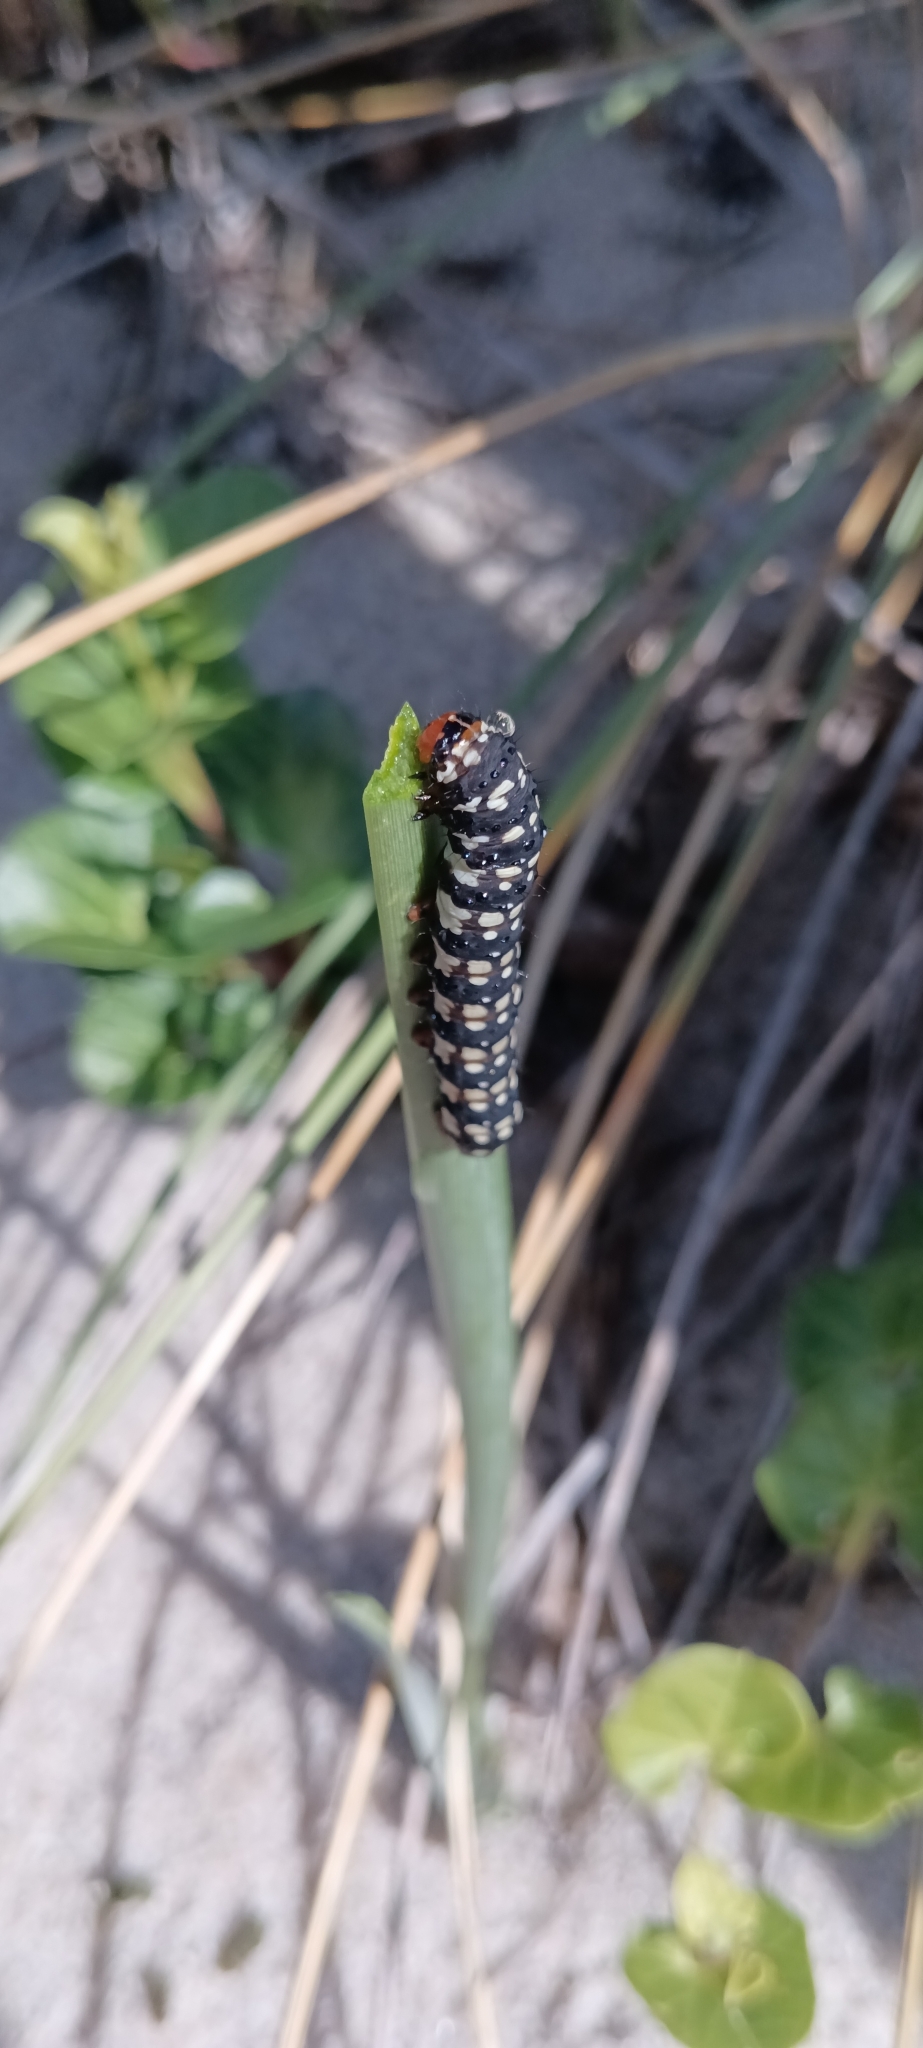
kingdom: Animalia
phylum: Arthropoda
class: Insecta
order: Lepidoptera
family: Noctuidae
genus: Brithys
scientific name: Brithys crini
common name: Kew arches
